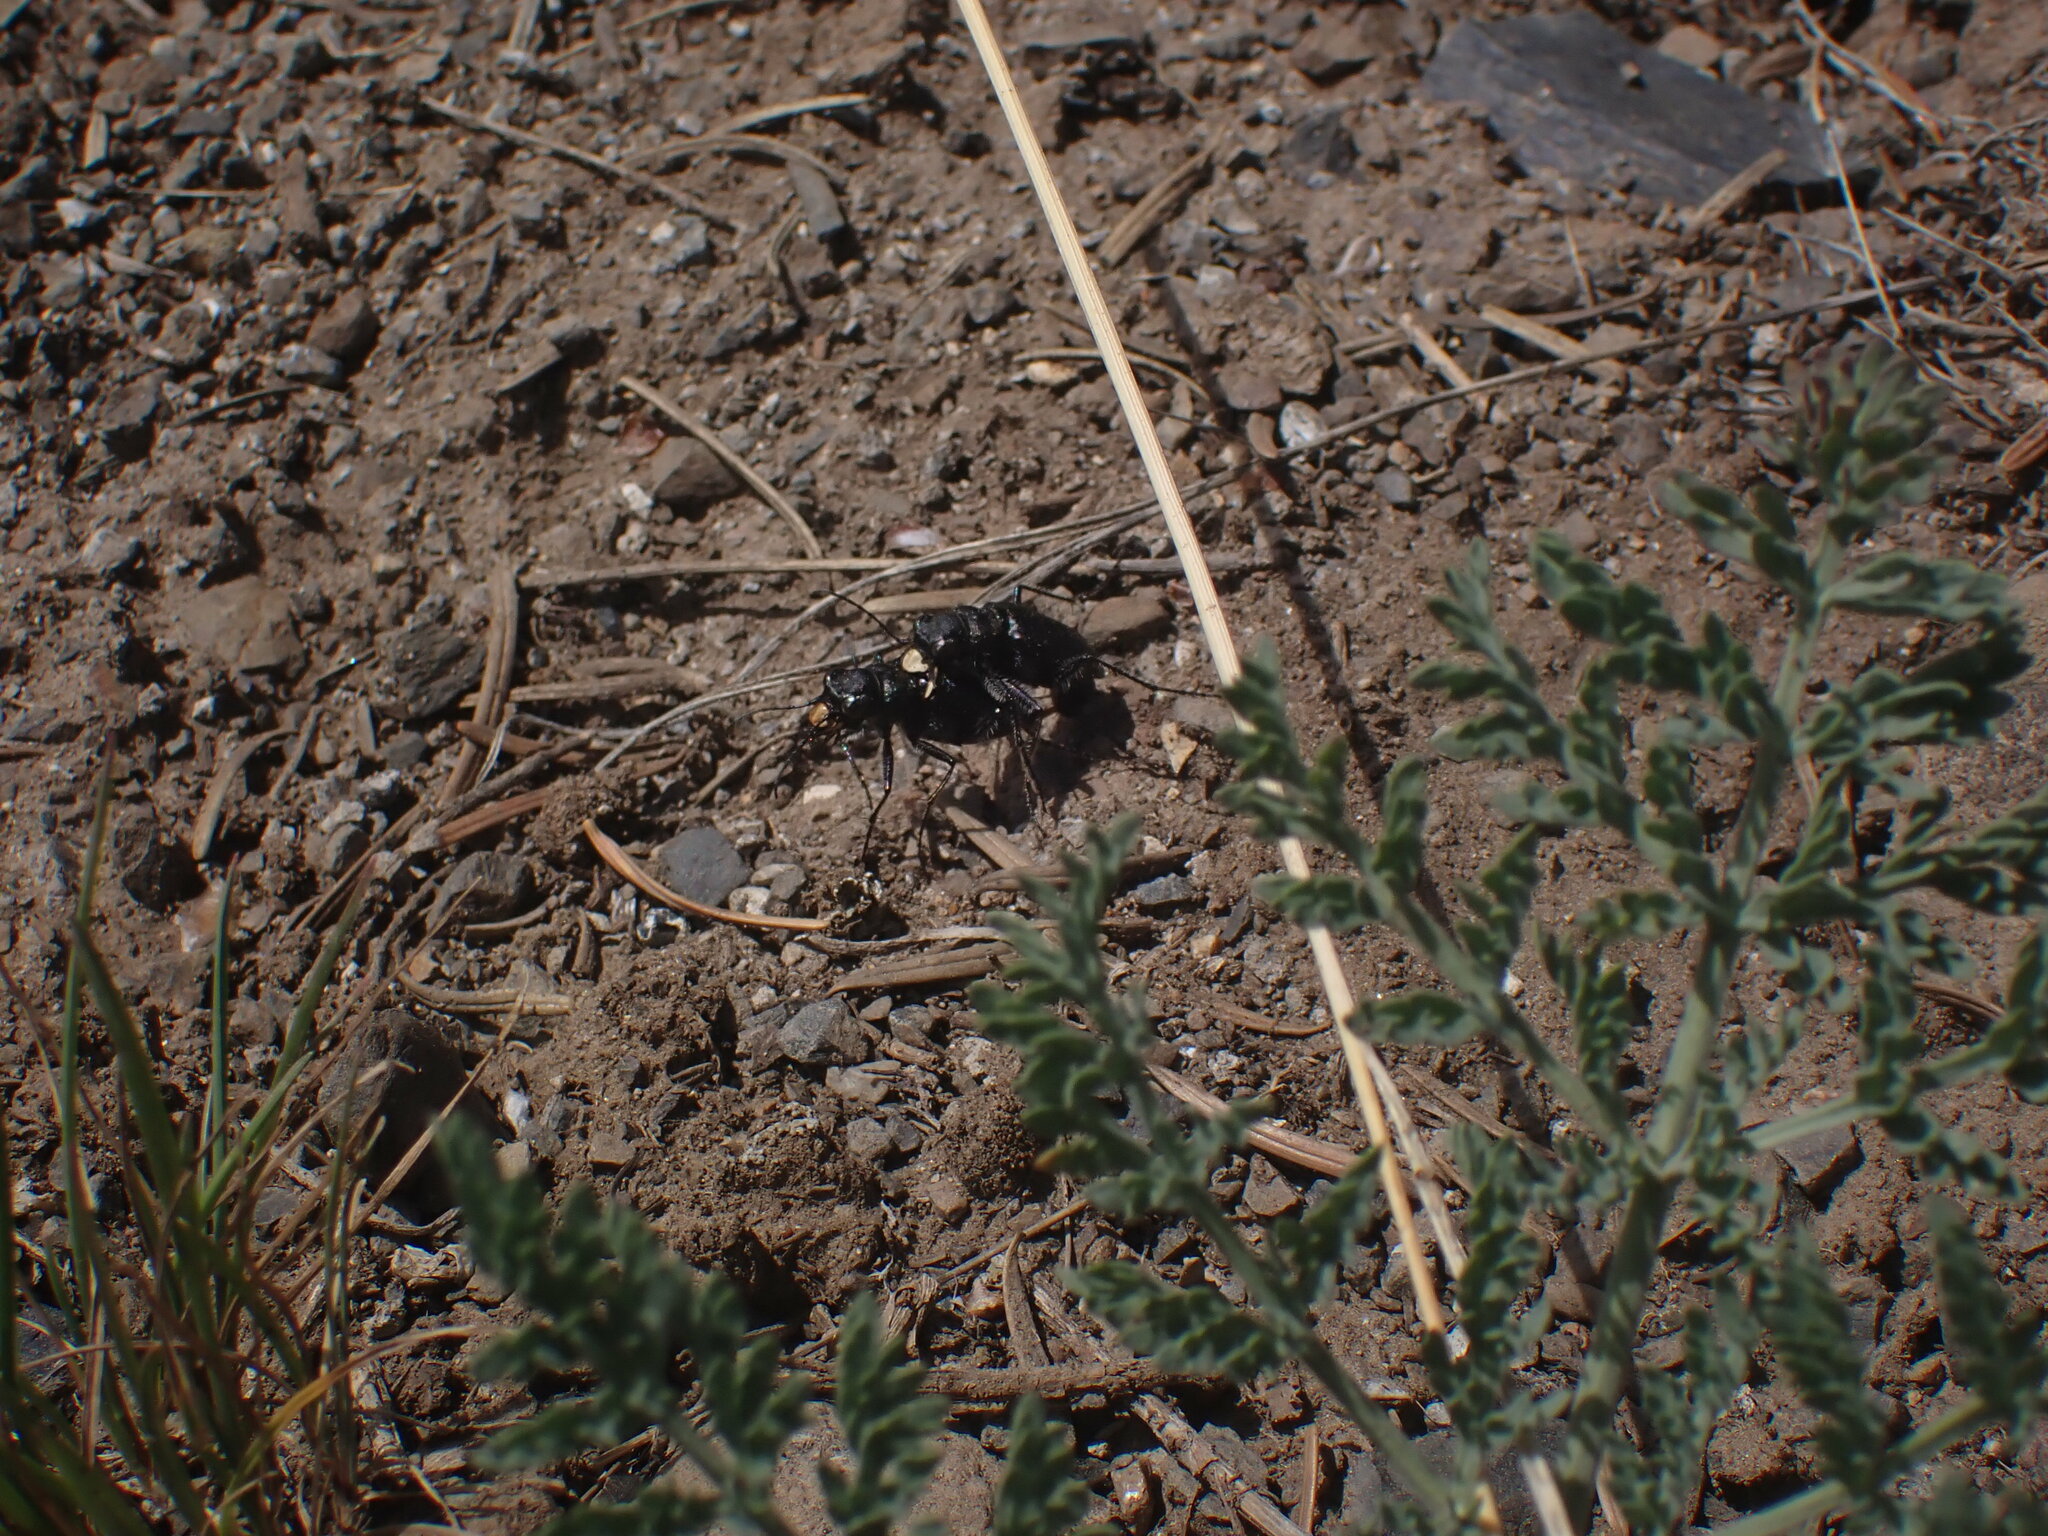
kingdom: Animalia
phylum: Arthropoda
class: Insecta
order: Coleoptera
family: Carabidae
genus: Cicindela
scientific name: Cicindela nebraskana
